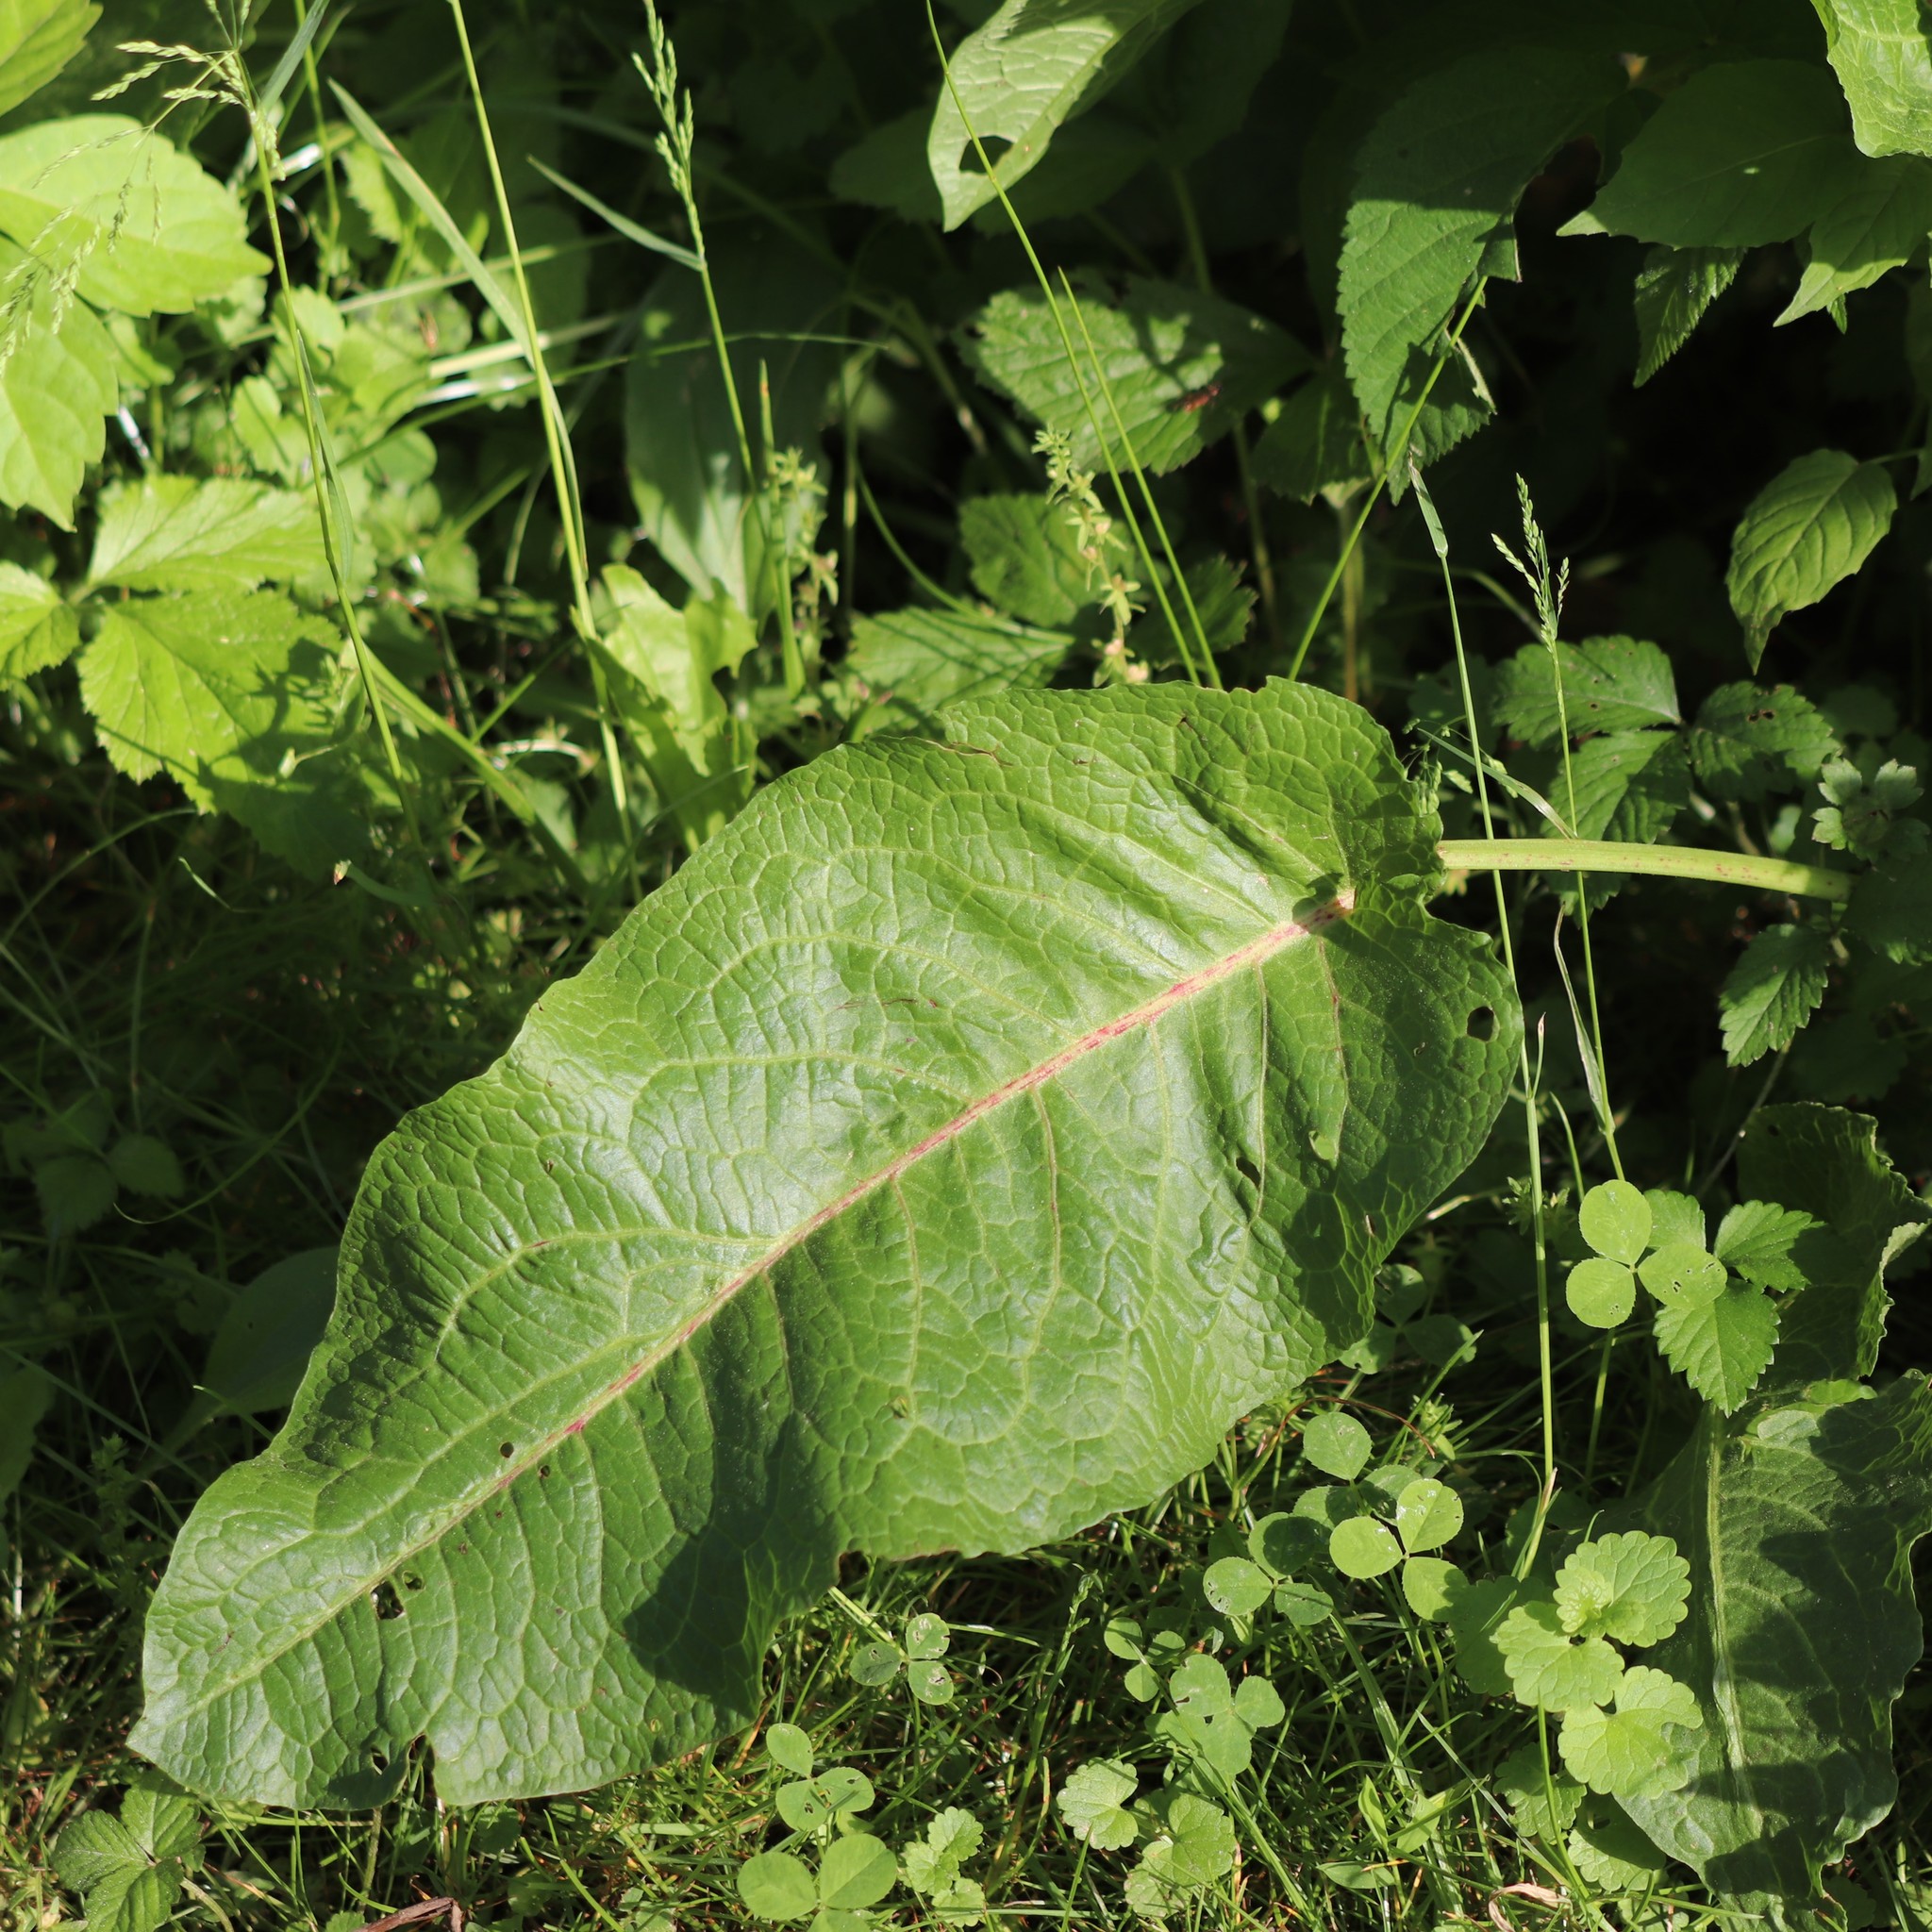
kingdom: Plantae
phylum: Tracheophyta
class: Magnoliopsida
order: Caryophyllales
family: Polygonaceae
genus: Rumex
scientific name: Rumex obtusifolius
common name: Bitter dock
